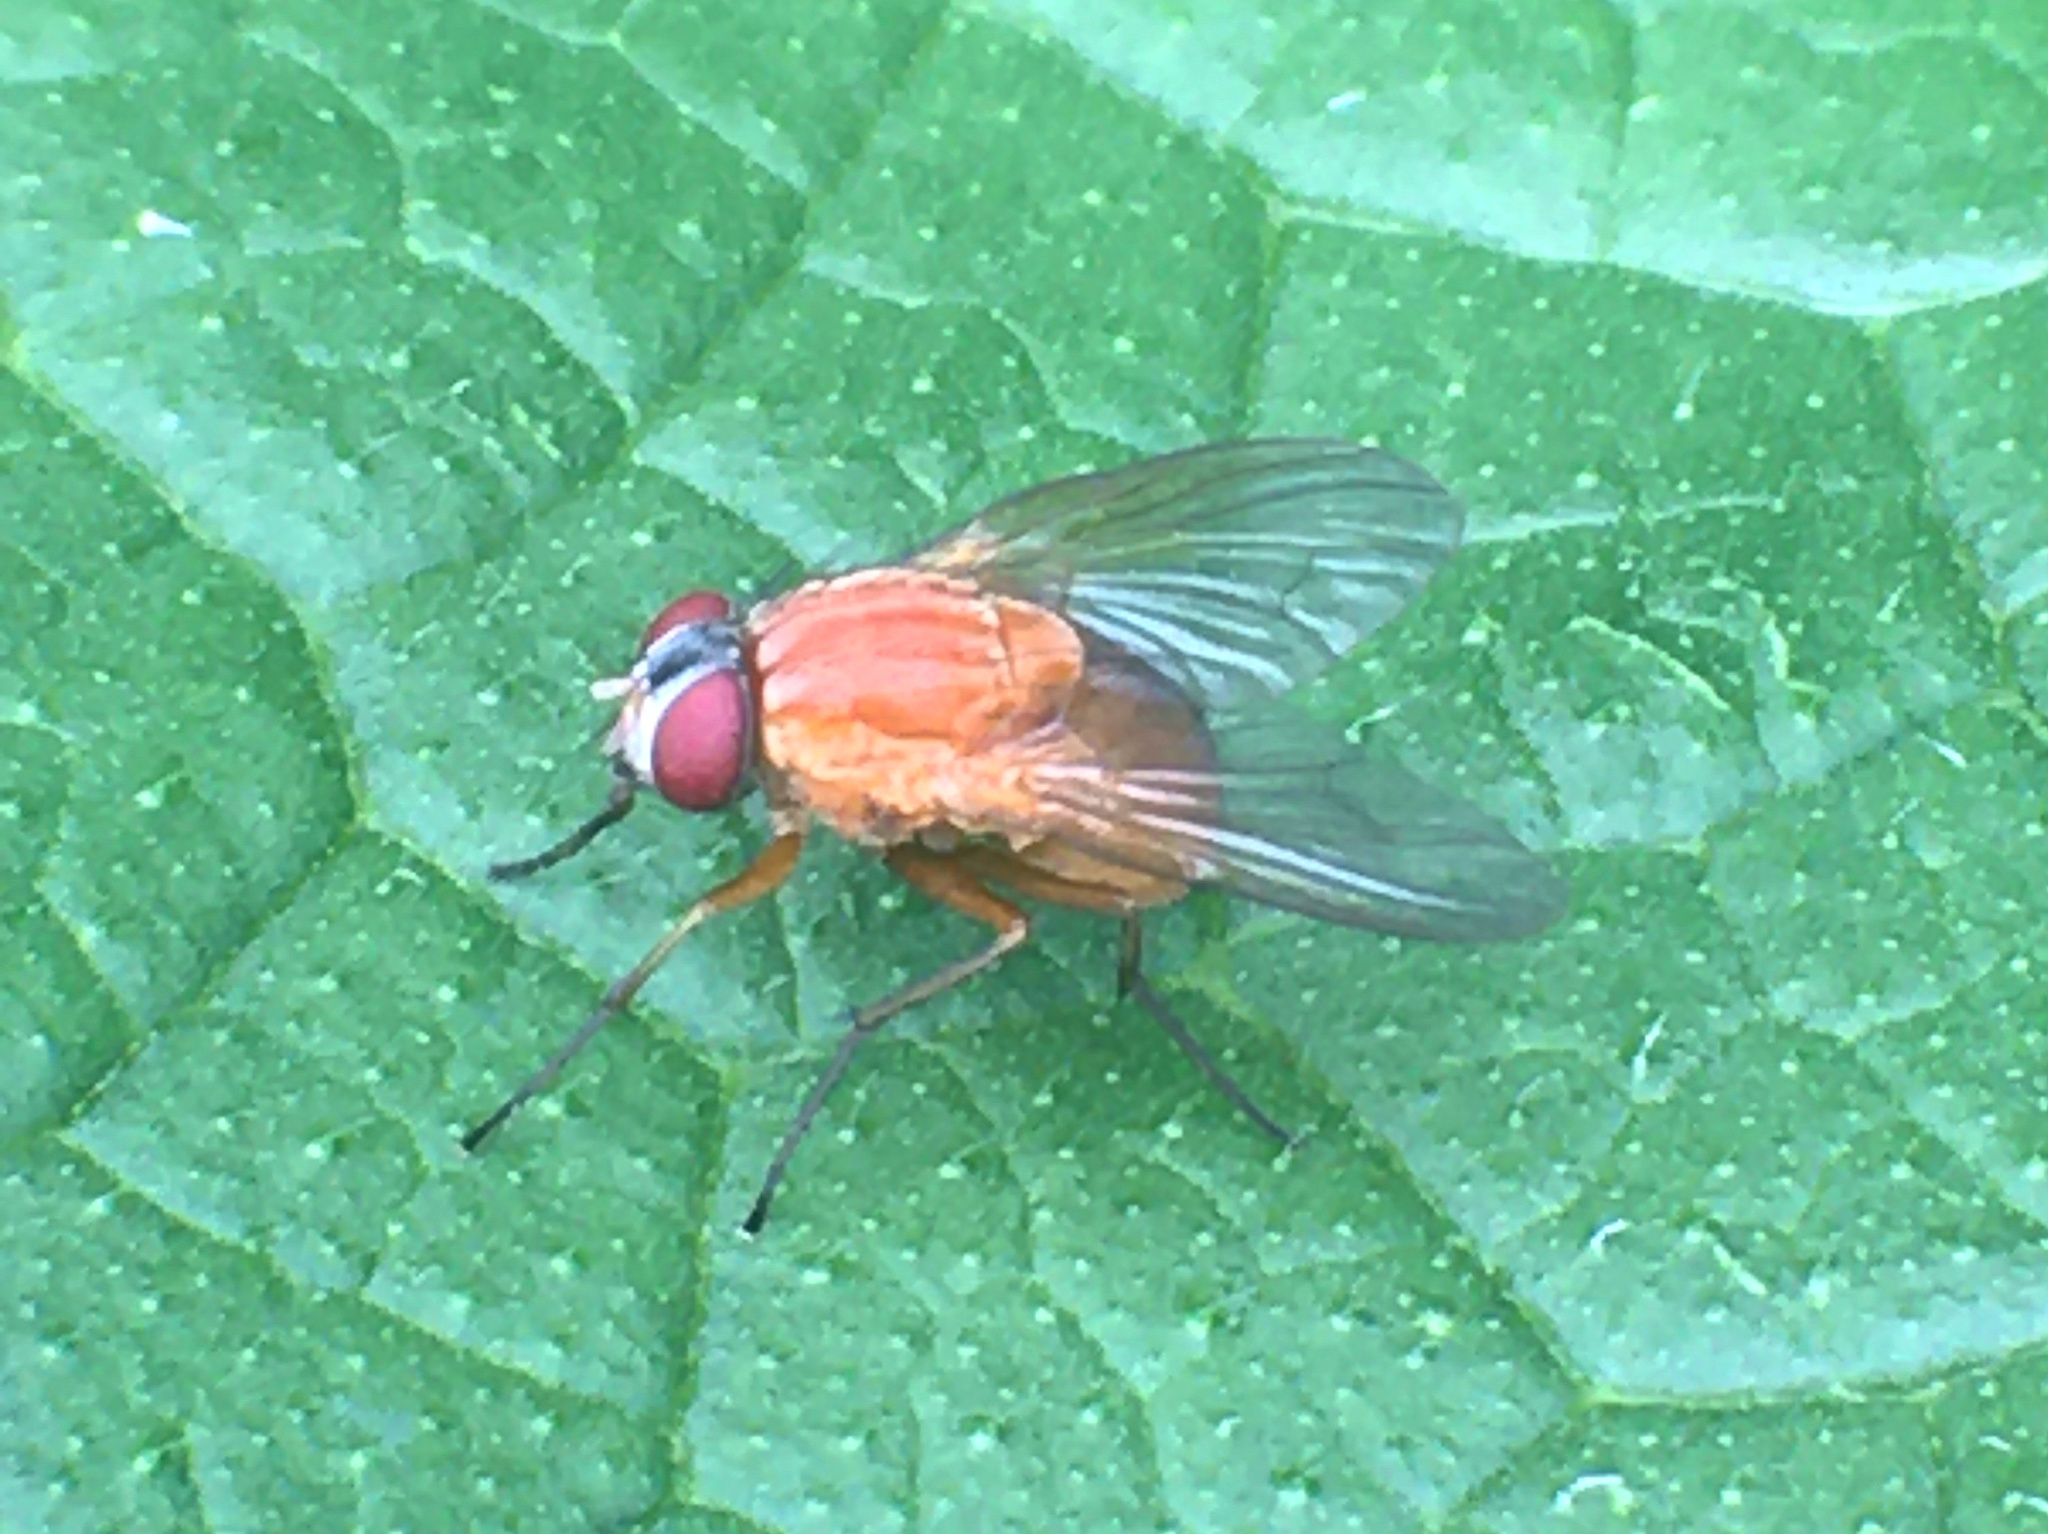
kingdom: Animalia
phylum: Arthropoda
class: Insecta
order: Diptera
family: Muscidae
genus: Dichaetomyia
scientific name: Dichaetomyia norrisi
